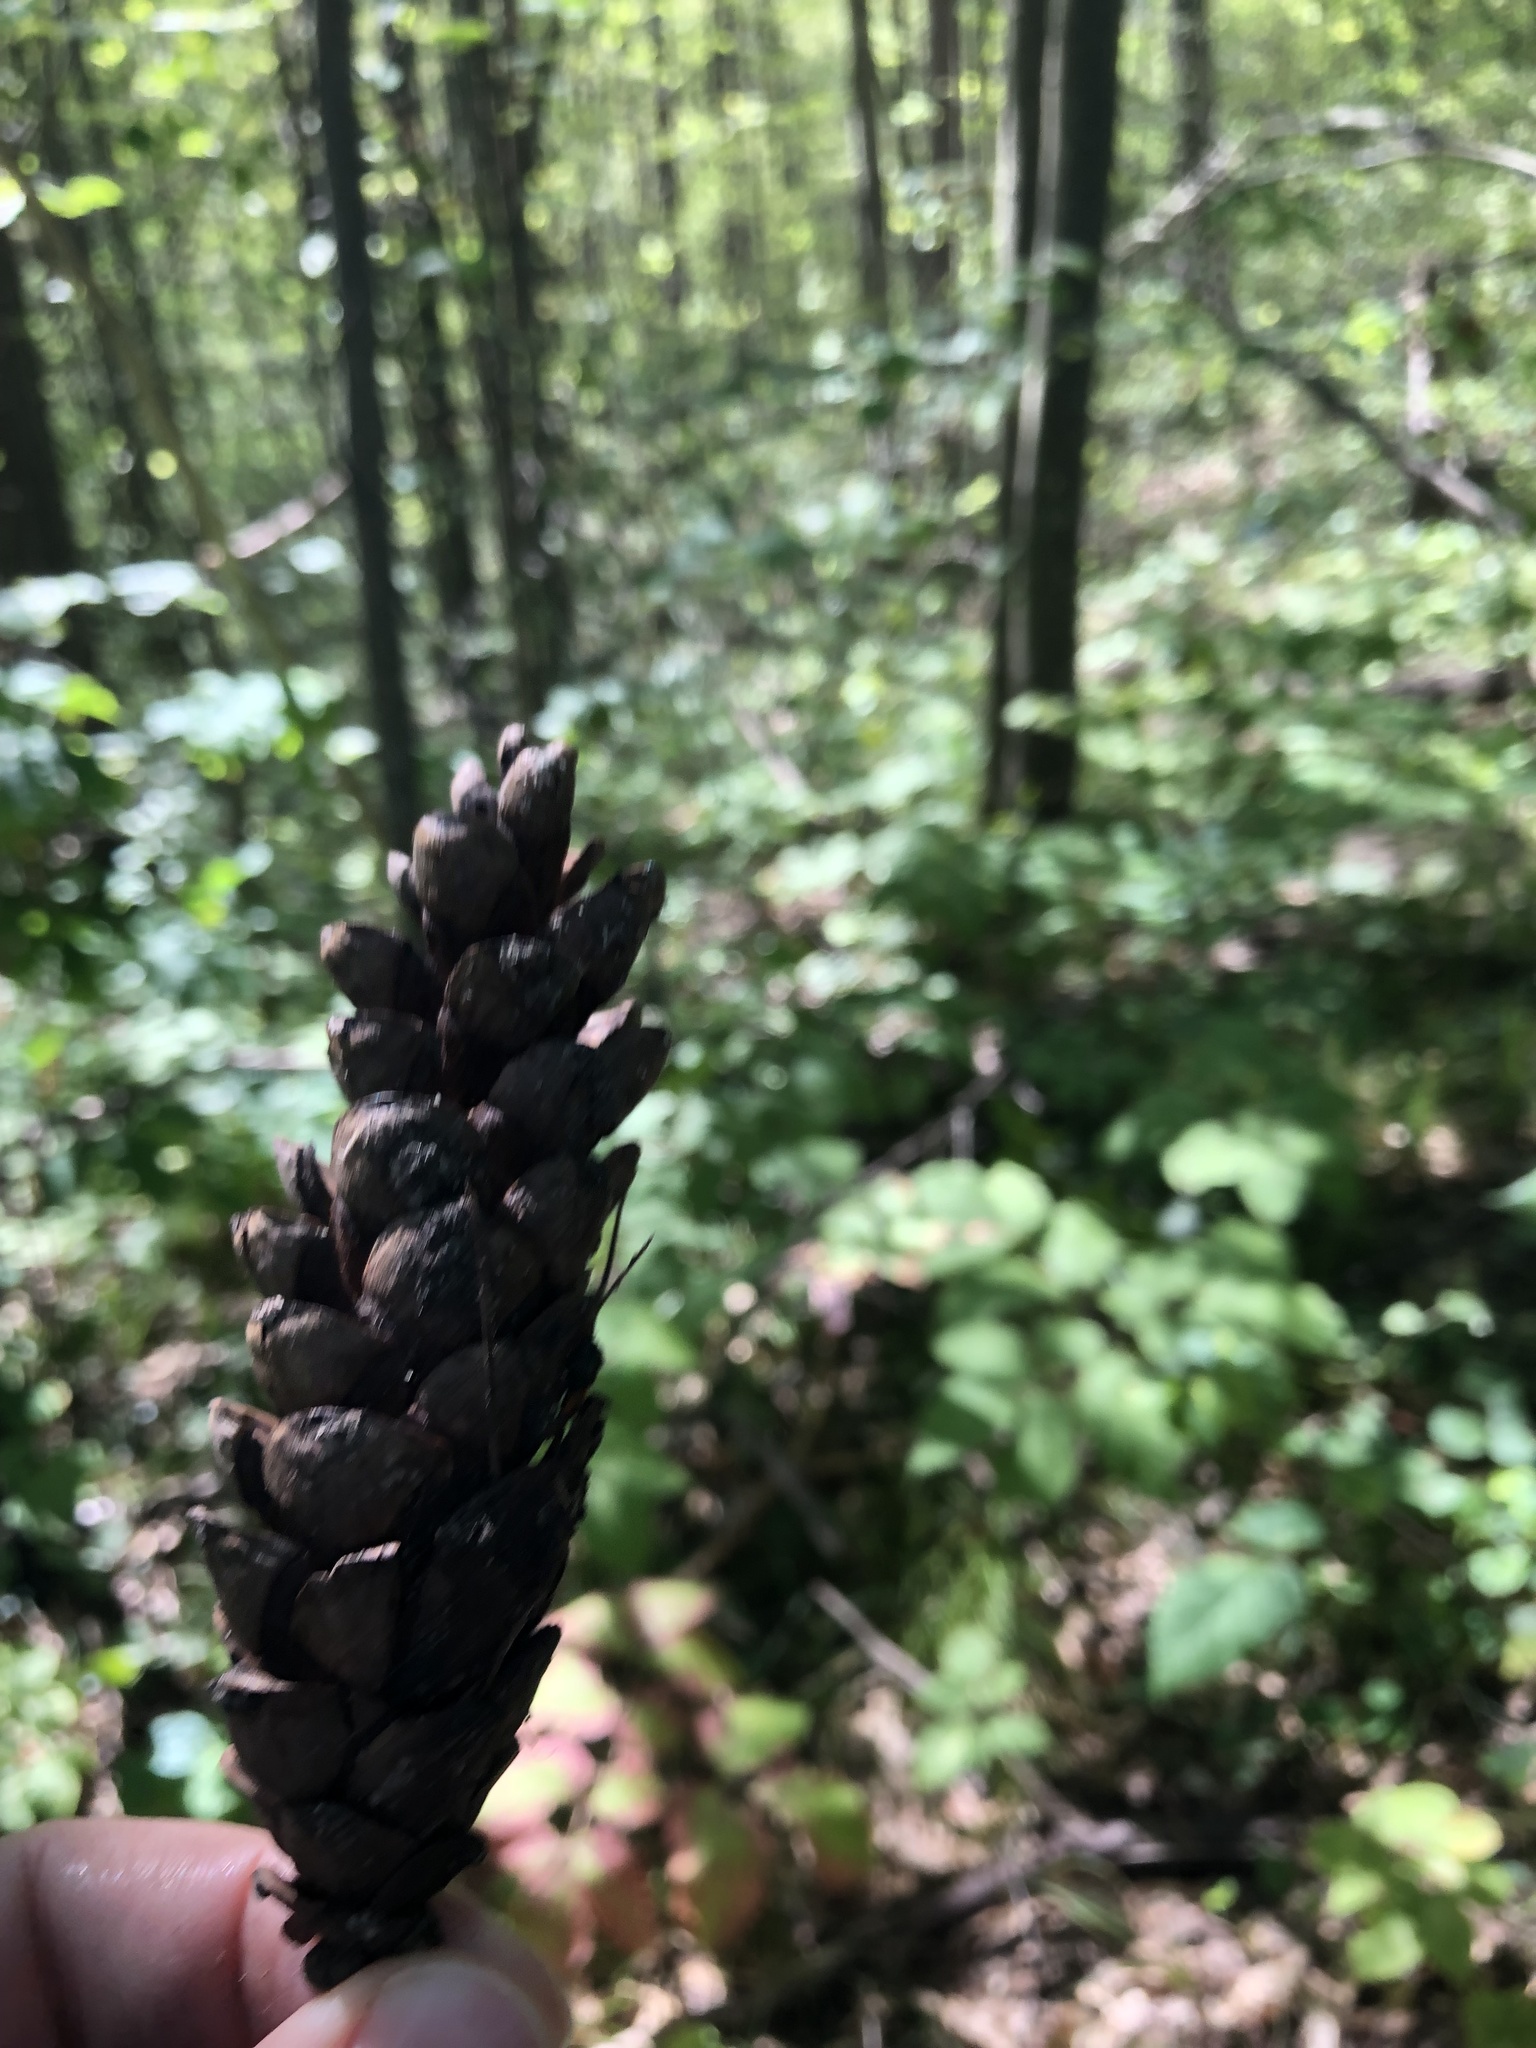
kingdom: Plantae
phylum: Tracheophyta
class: Pinopsida
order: Pinales
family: Pinaceae
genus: Pinus
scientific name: Pinus strobus
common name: Weymouth pine
